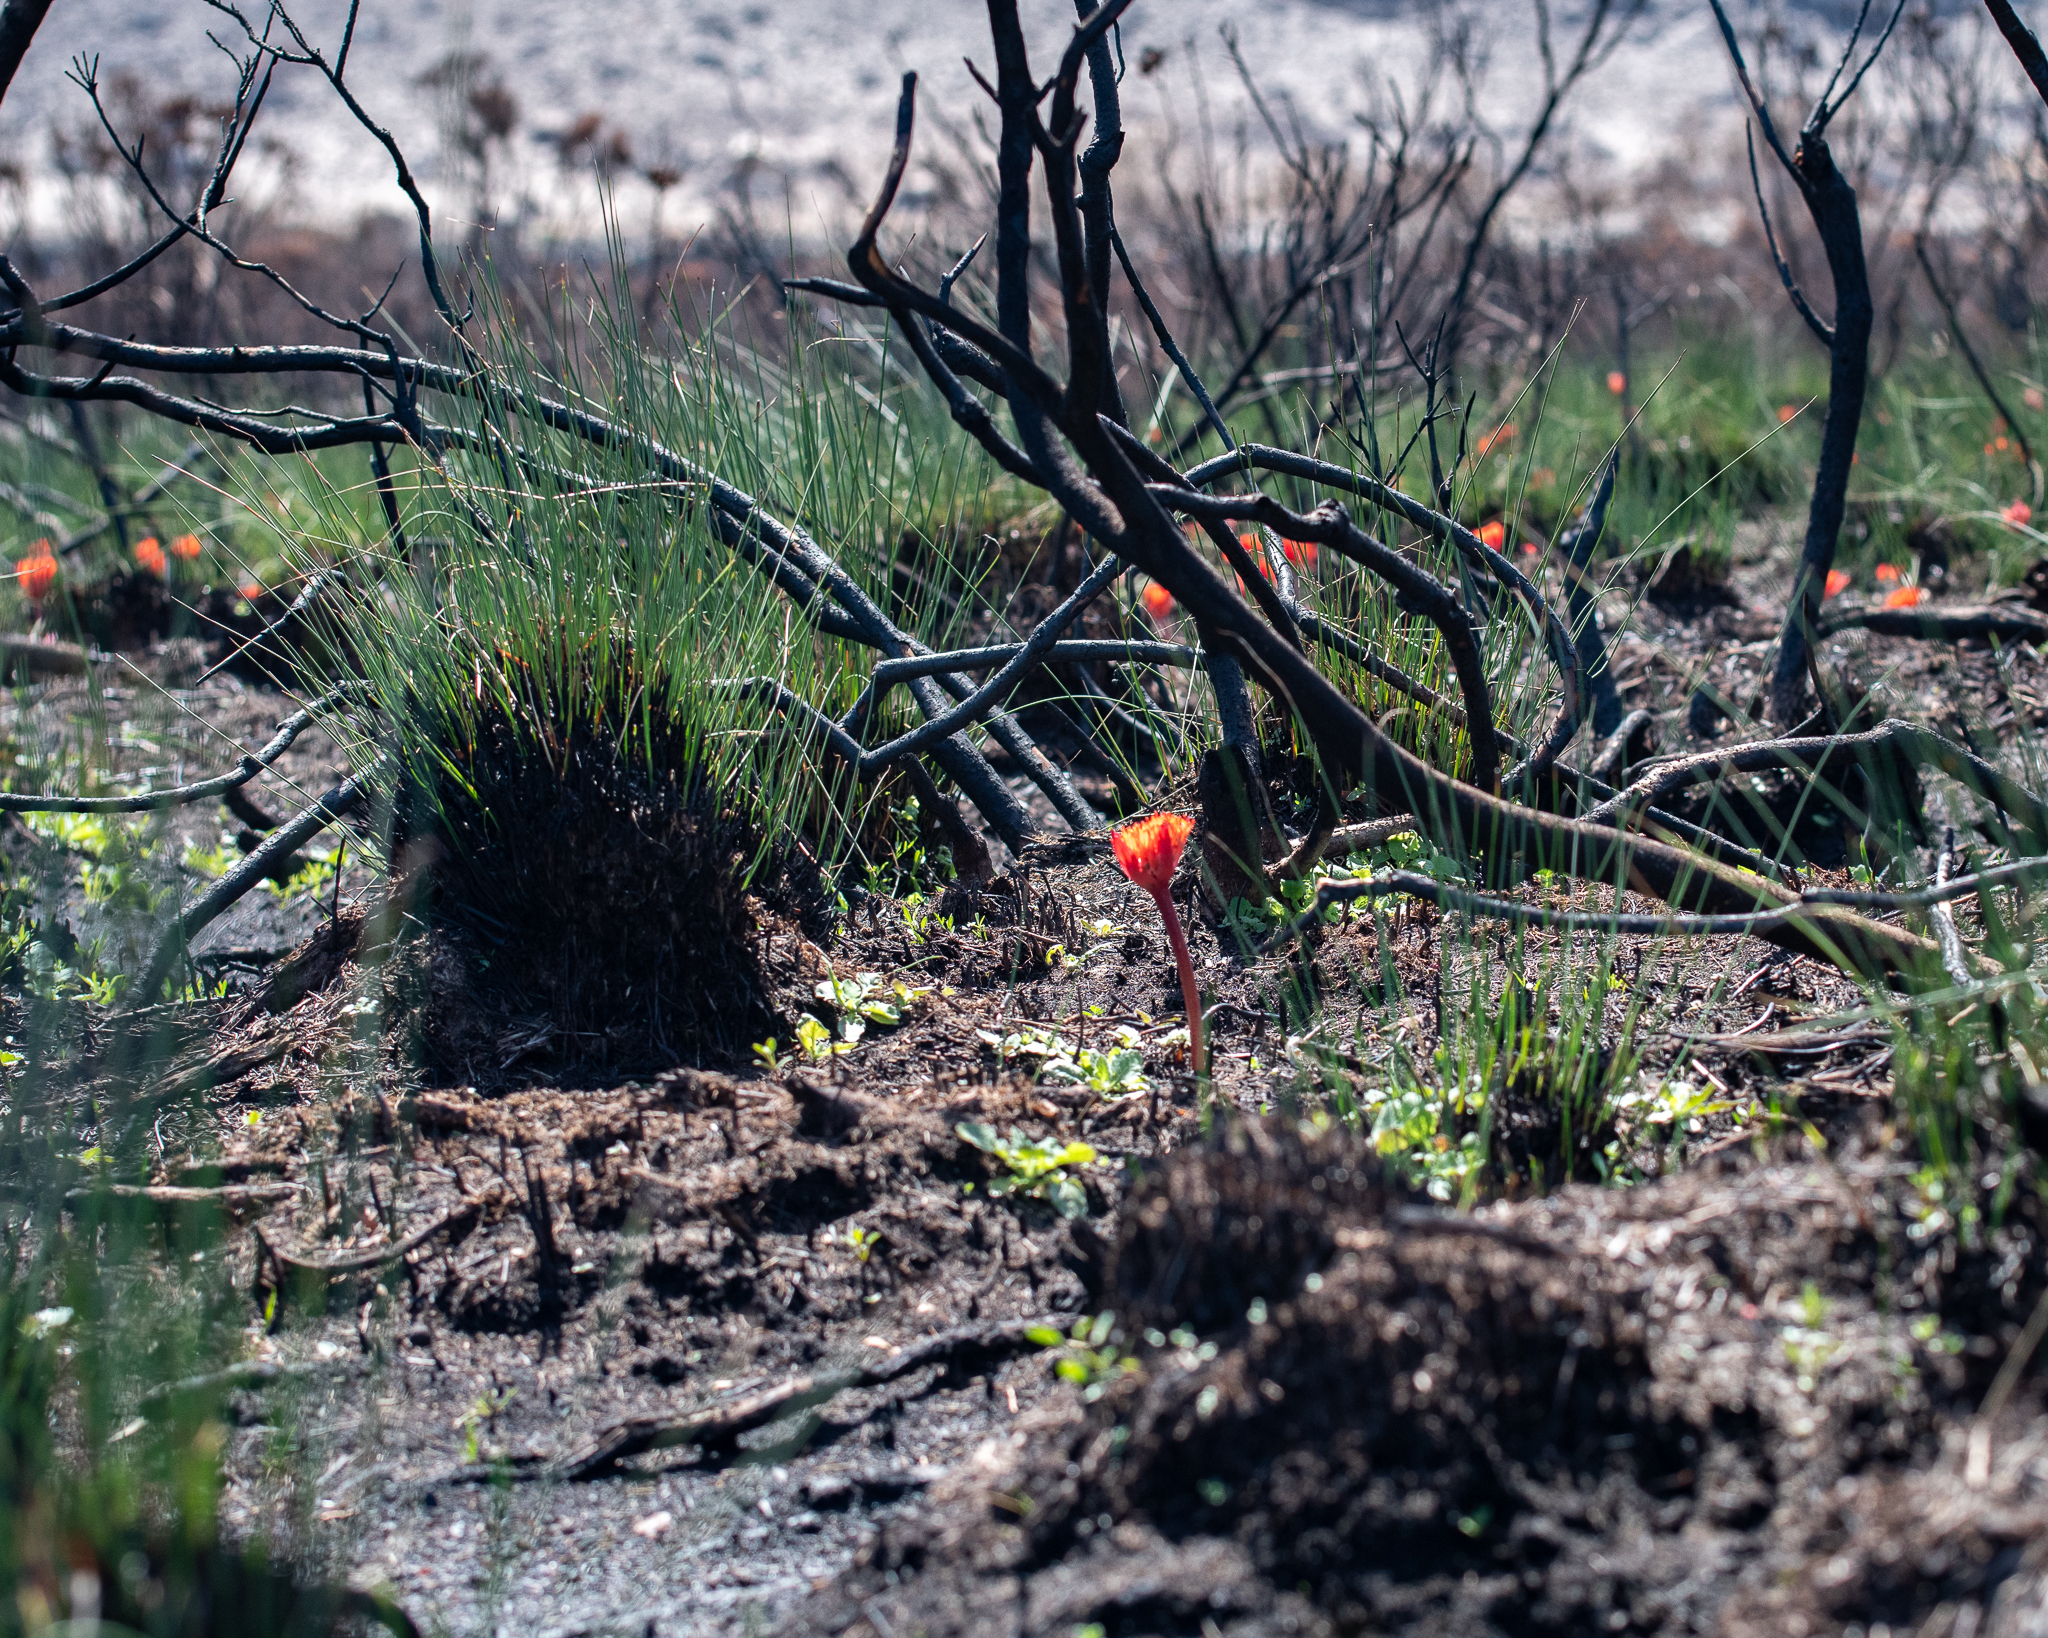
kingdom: Plantae
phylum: Tracheophyta
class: Liliopsida
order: Asparagales
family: Amaryllidaceae
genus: Haemanthus
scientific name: Haemanthus canaliculatus
